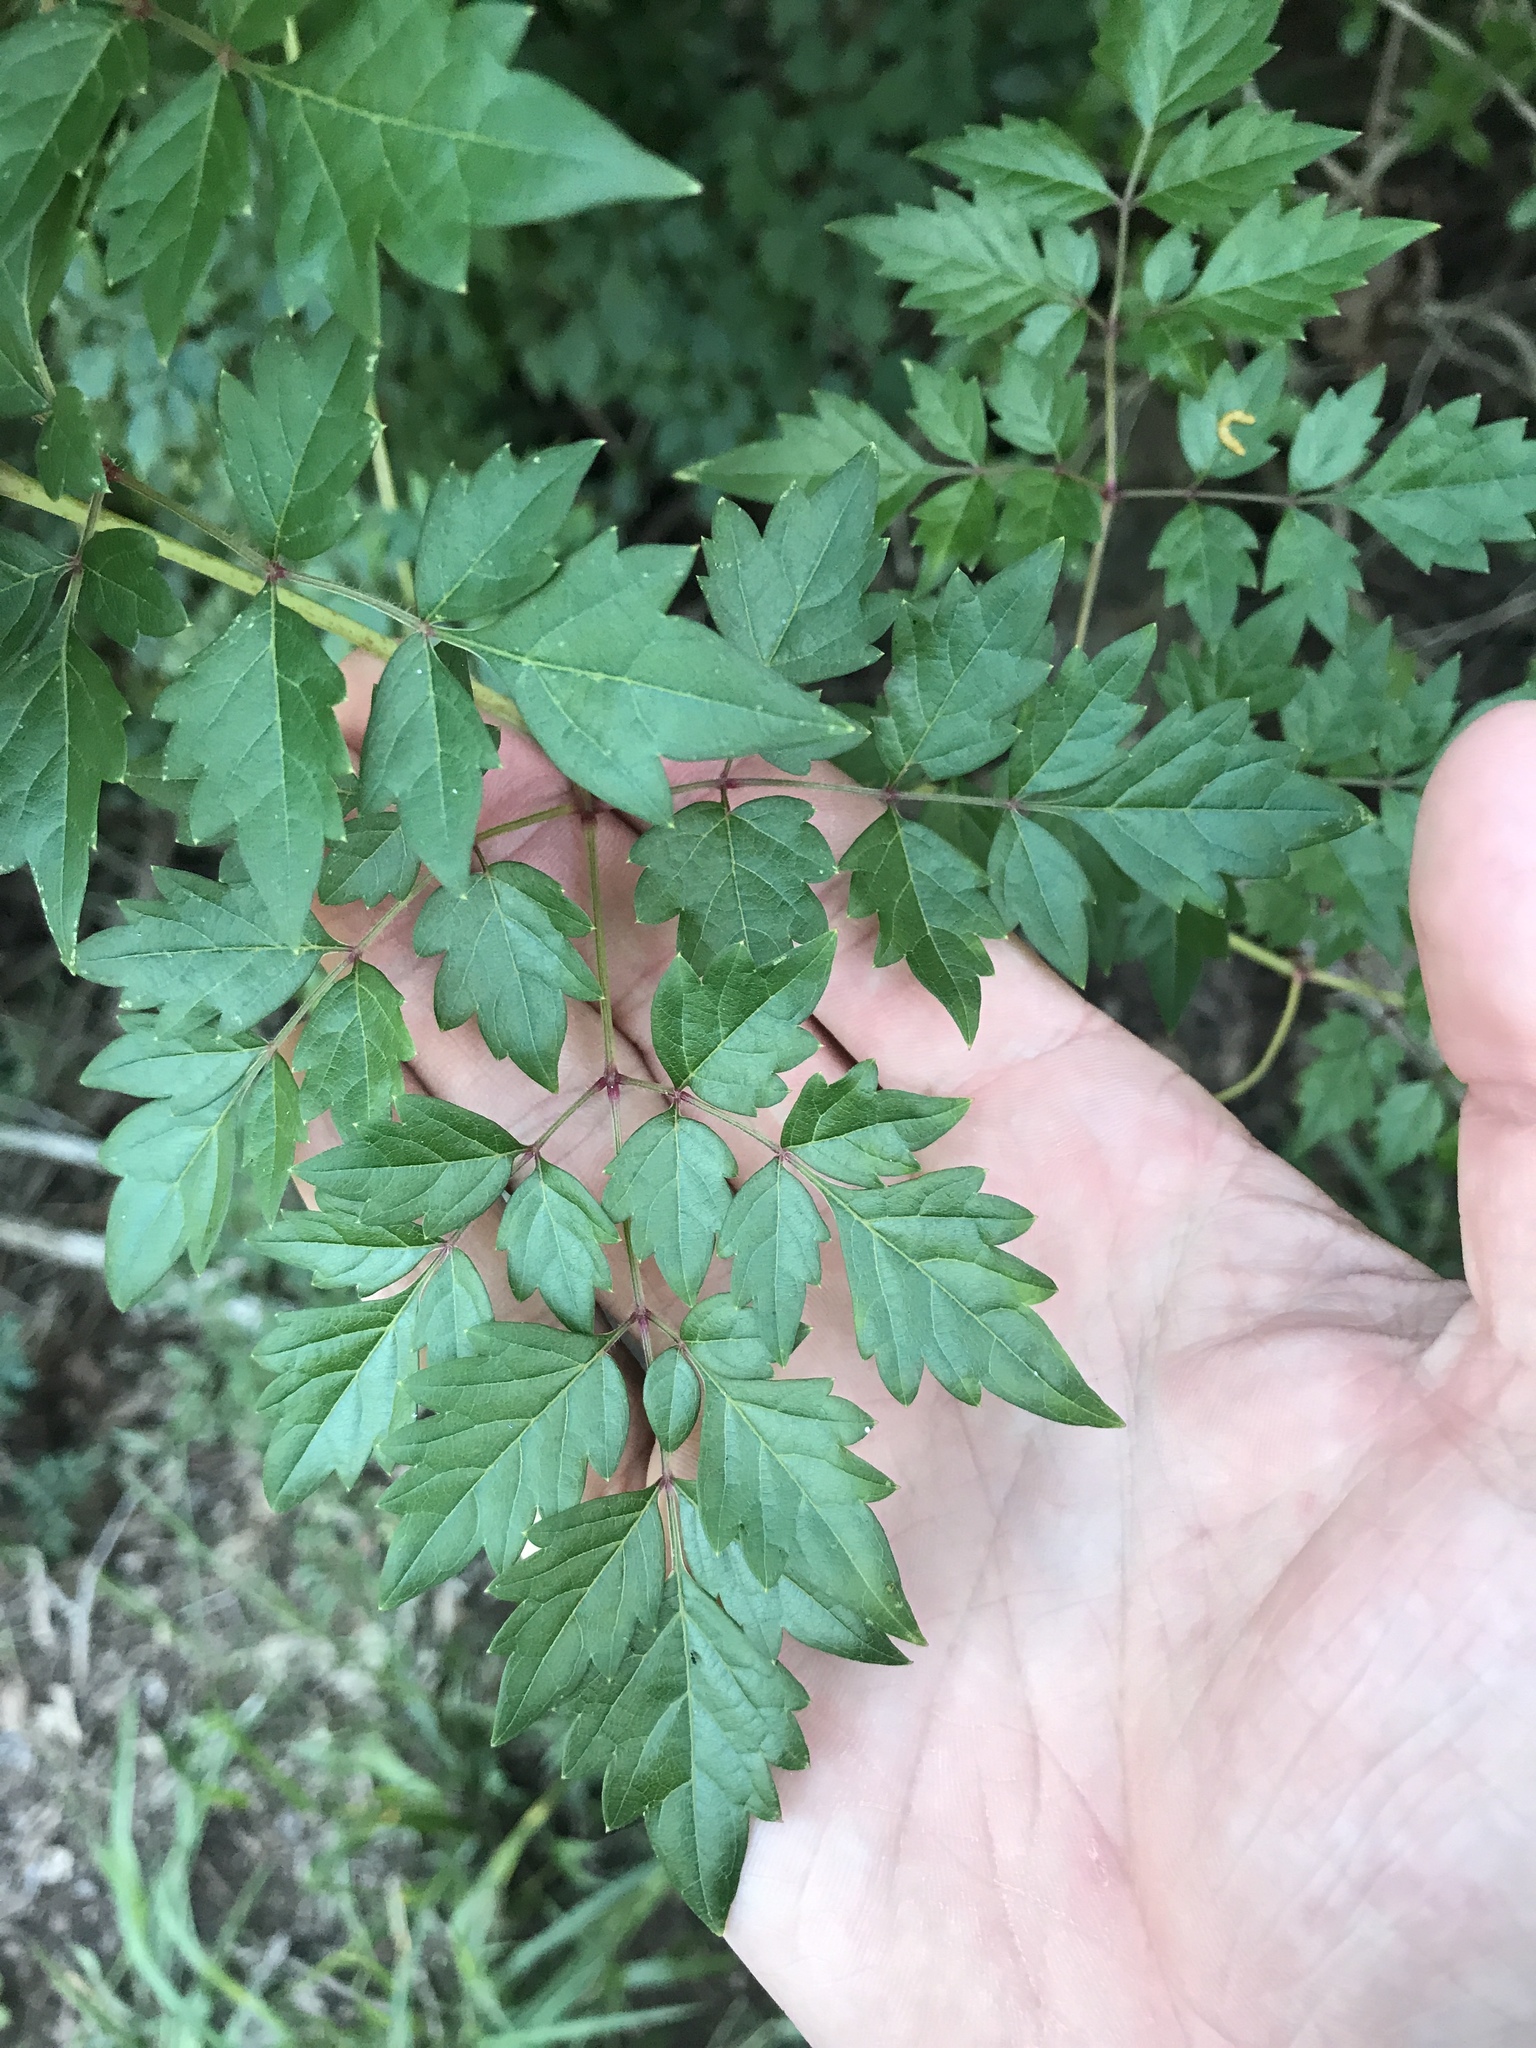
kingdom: Plantae
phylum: Tracheophyta
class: Magnoliopsida
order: Vitales
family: Vitaceae
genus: Nekemias
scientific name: Nekemias arborea
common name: Peppervine
